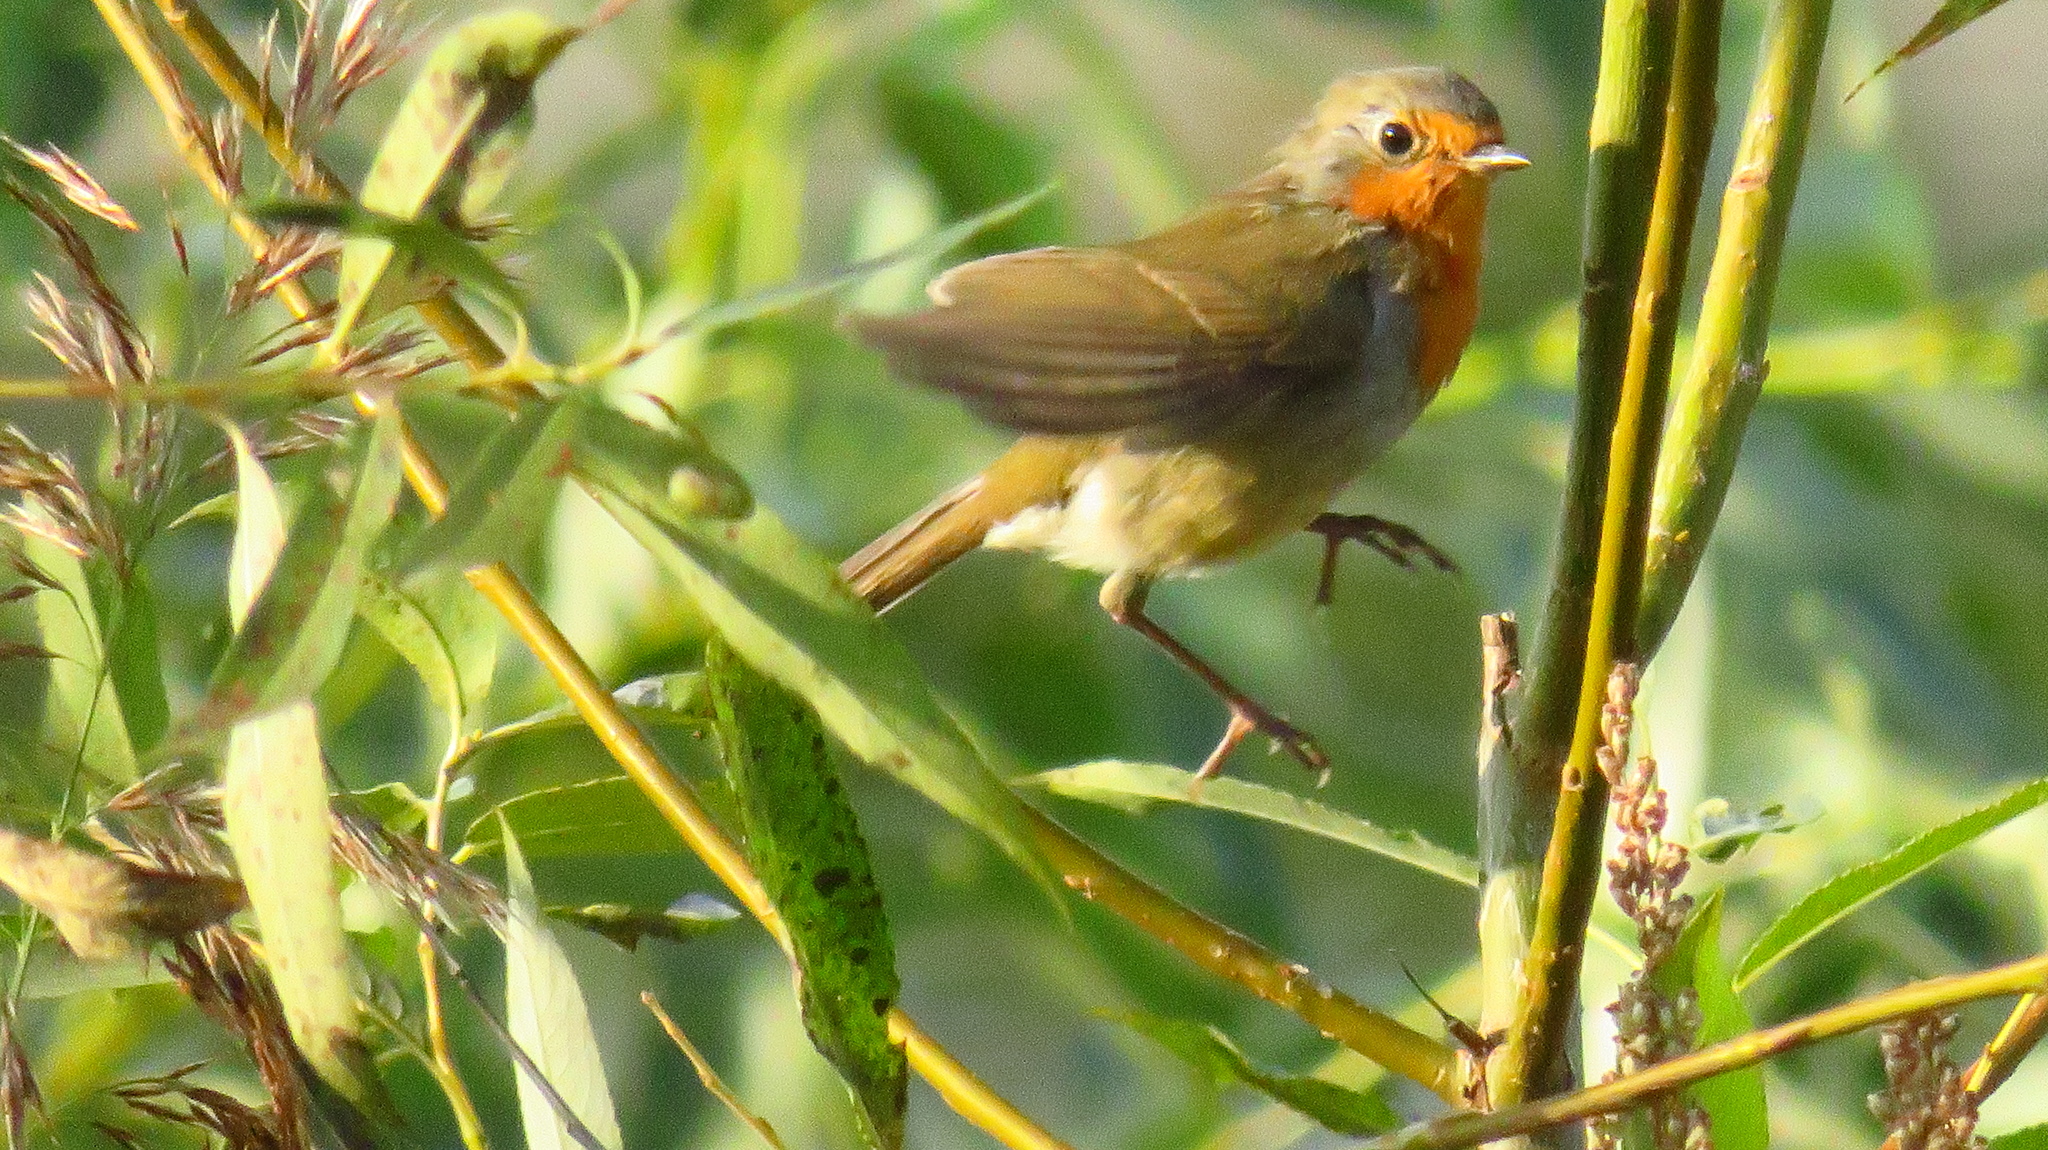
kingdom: Animalia
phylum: Chordata
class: Aves
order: Passeriformes
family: Muscicapidae
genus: Erithacus
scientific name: Erithacus rubecula
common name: European robin
